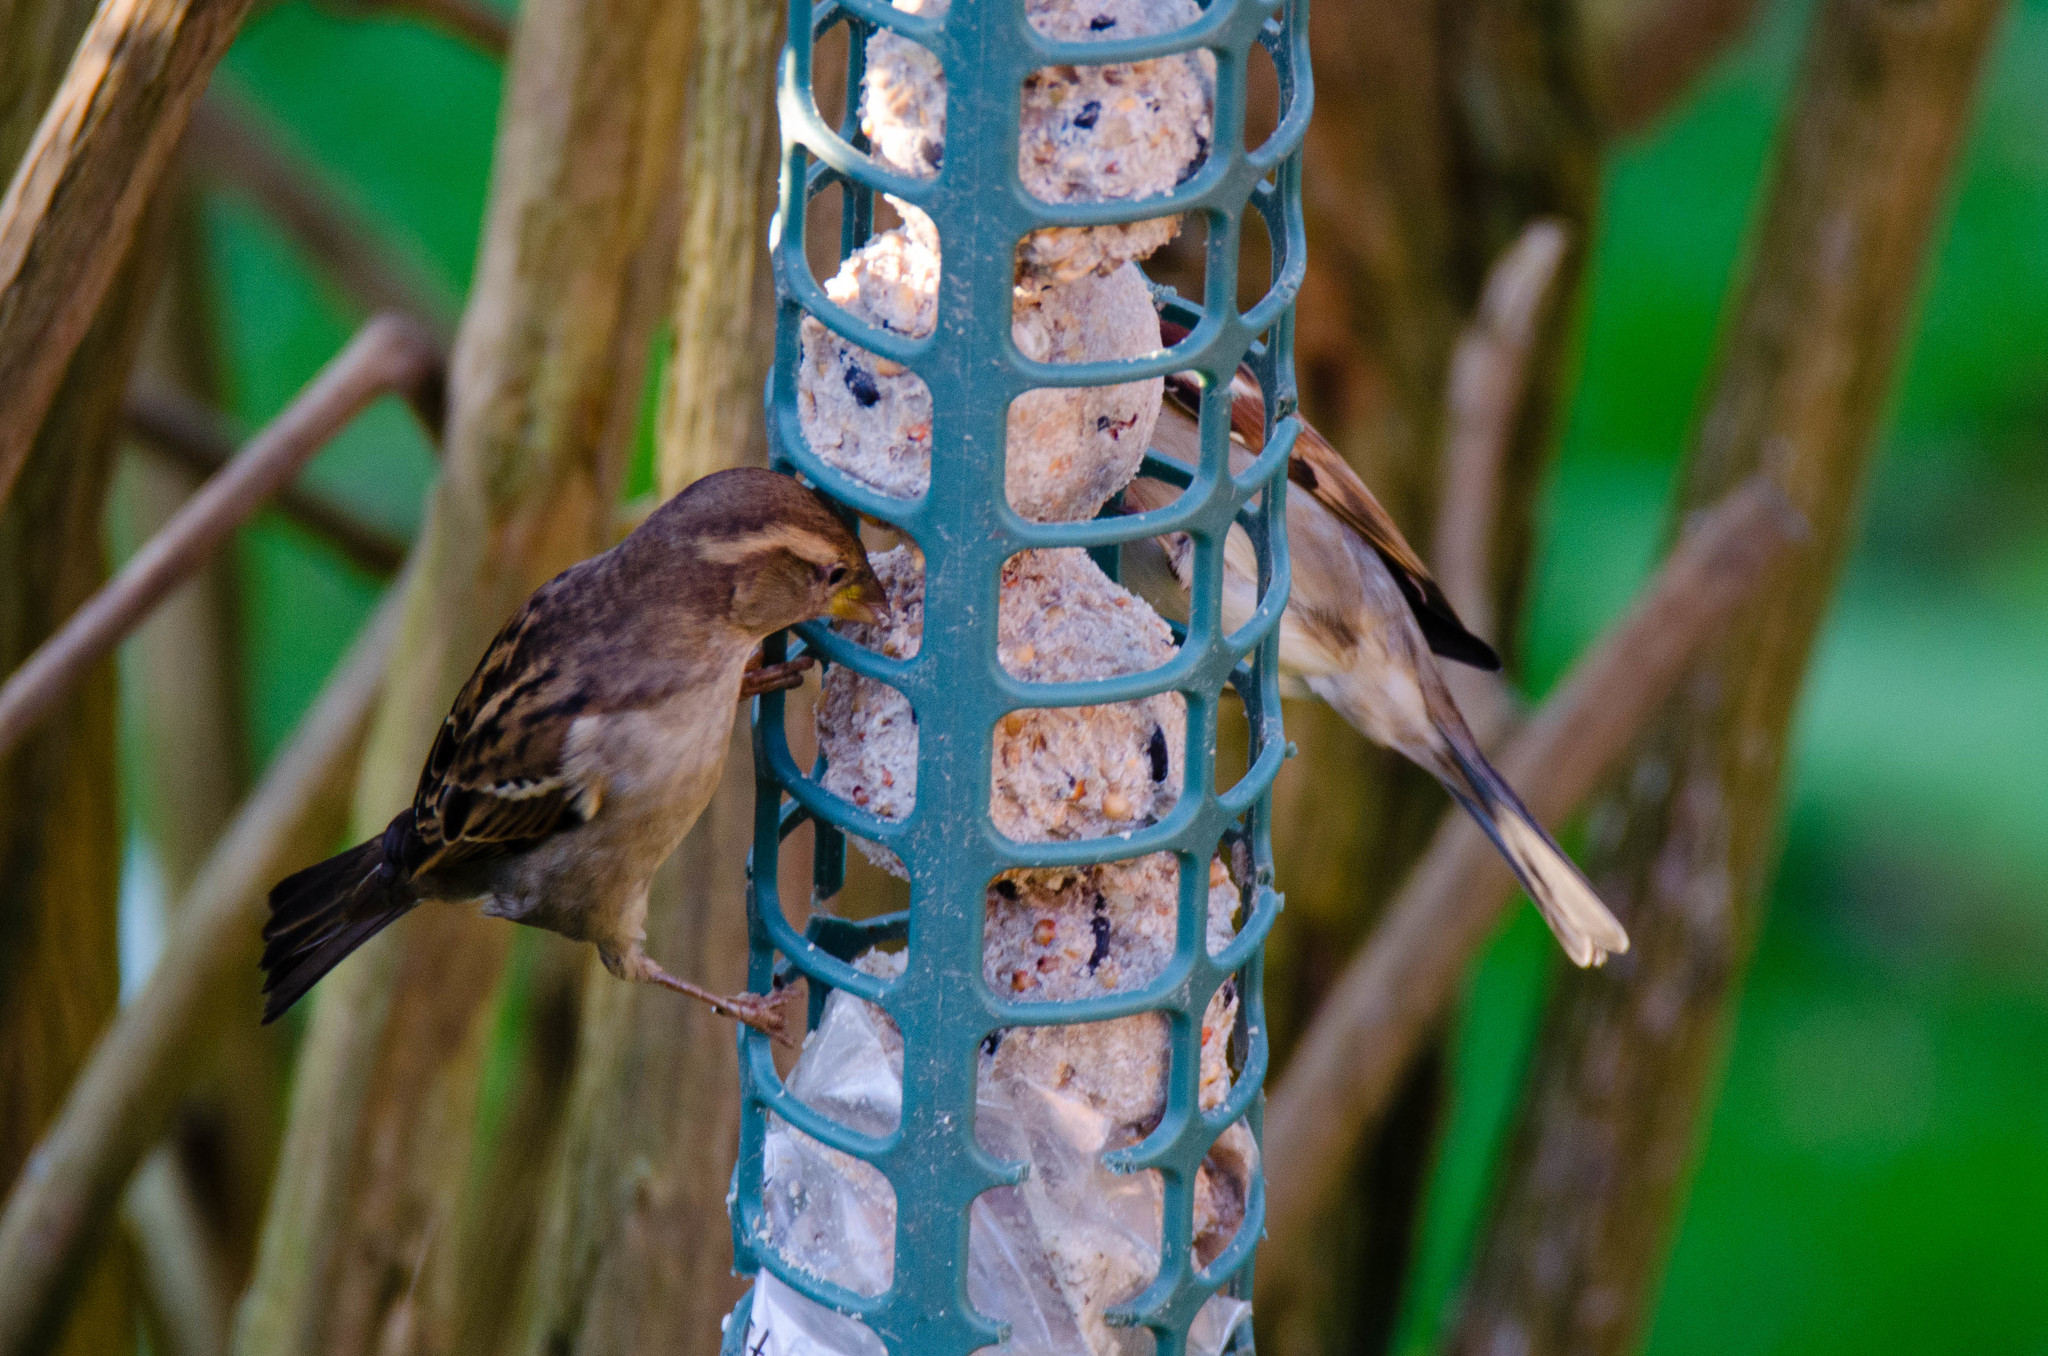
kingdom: Animalia
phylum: Chordata
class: Aves
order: Passeriformes
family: Passeridae
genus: Passer
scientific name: Passer domesticus
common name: House sparrow
